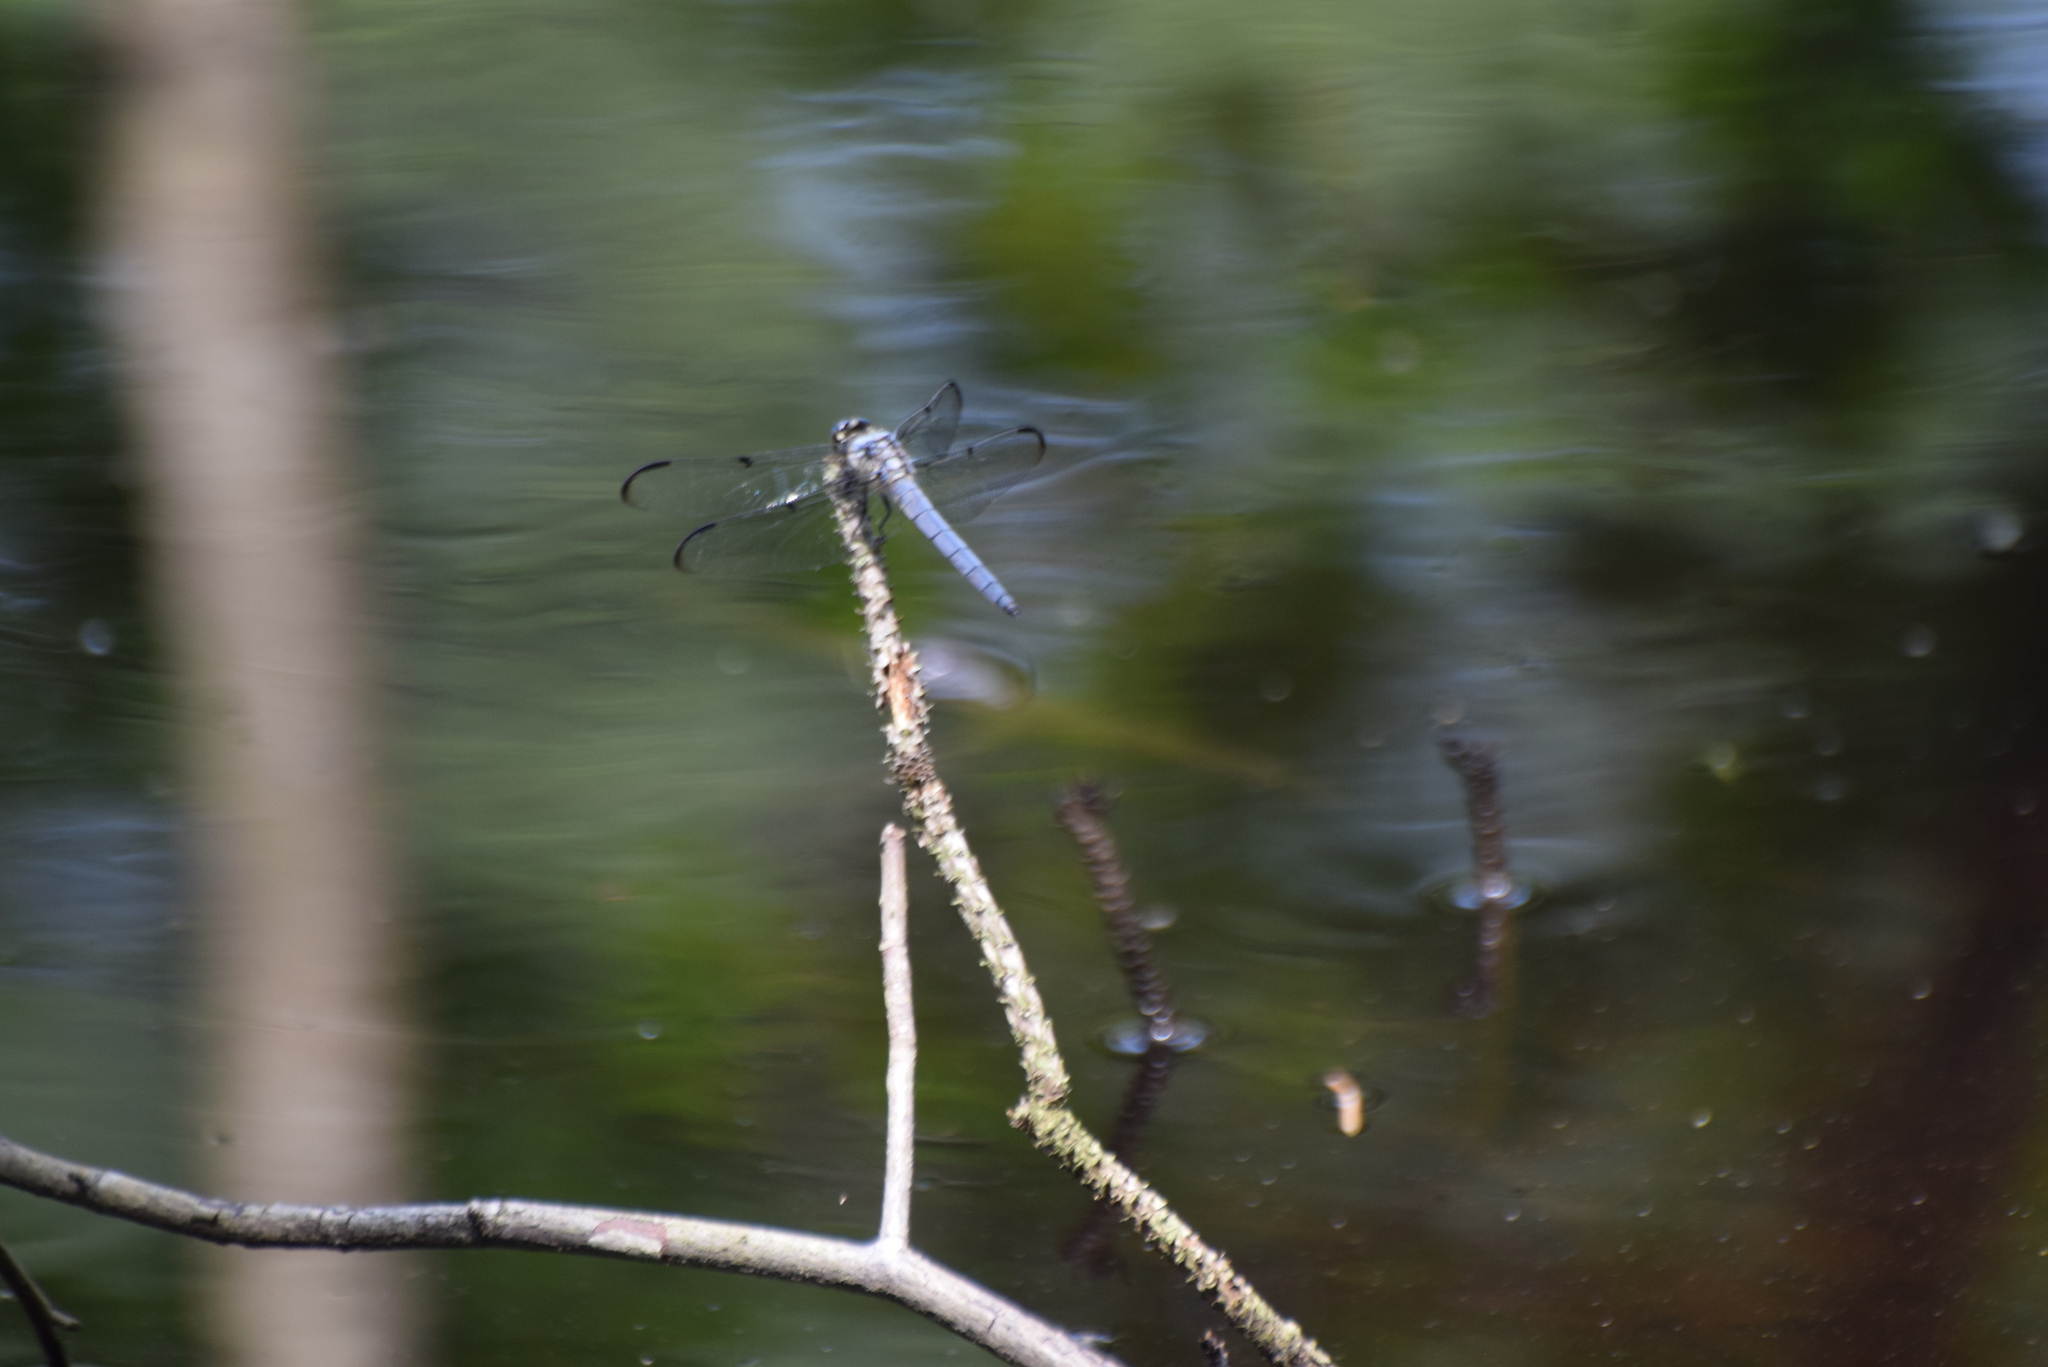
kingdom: Animalia
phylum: Arthropoda
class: Insecta
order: Odonata
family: Libellulidae
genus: Libellula
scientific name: Libellula vibrans
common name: Great blue skimmer
